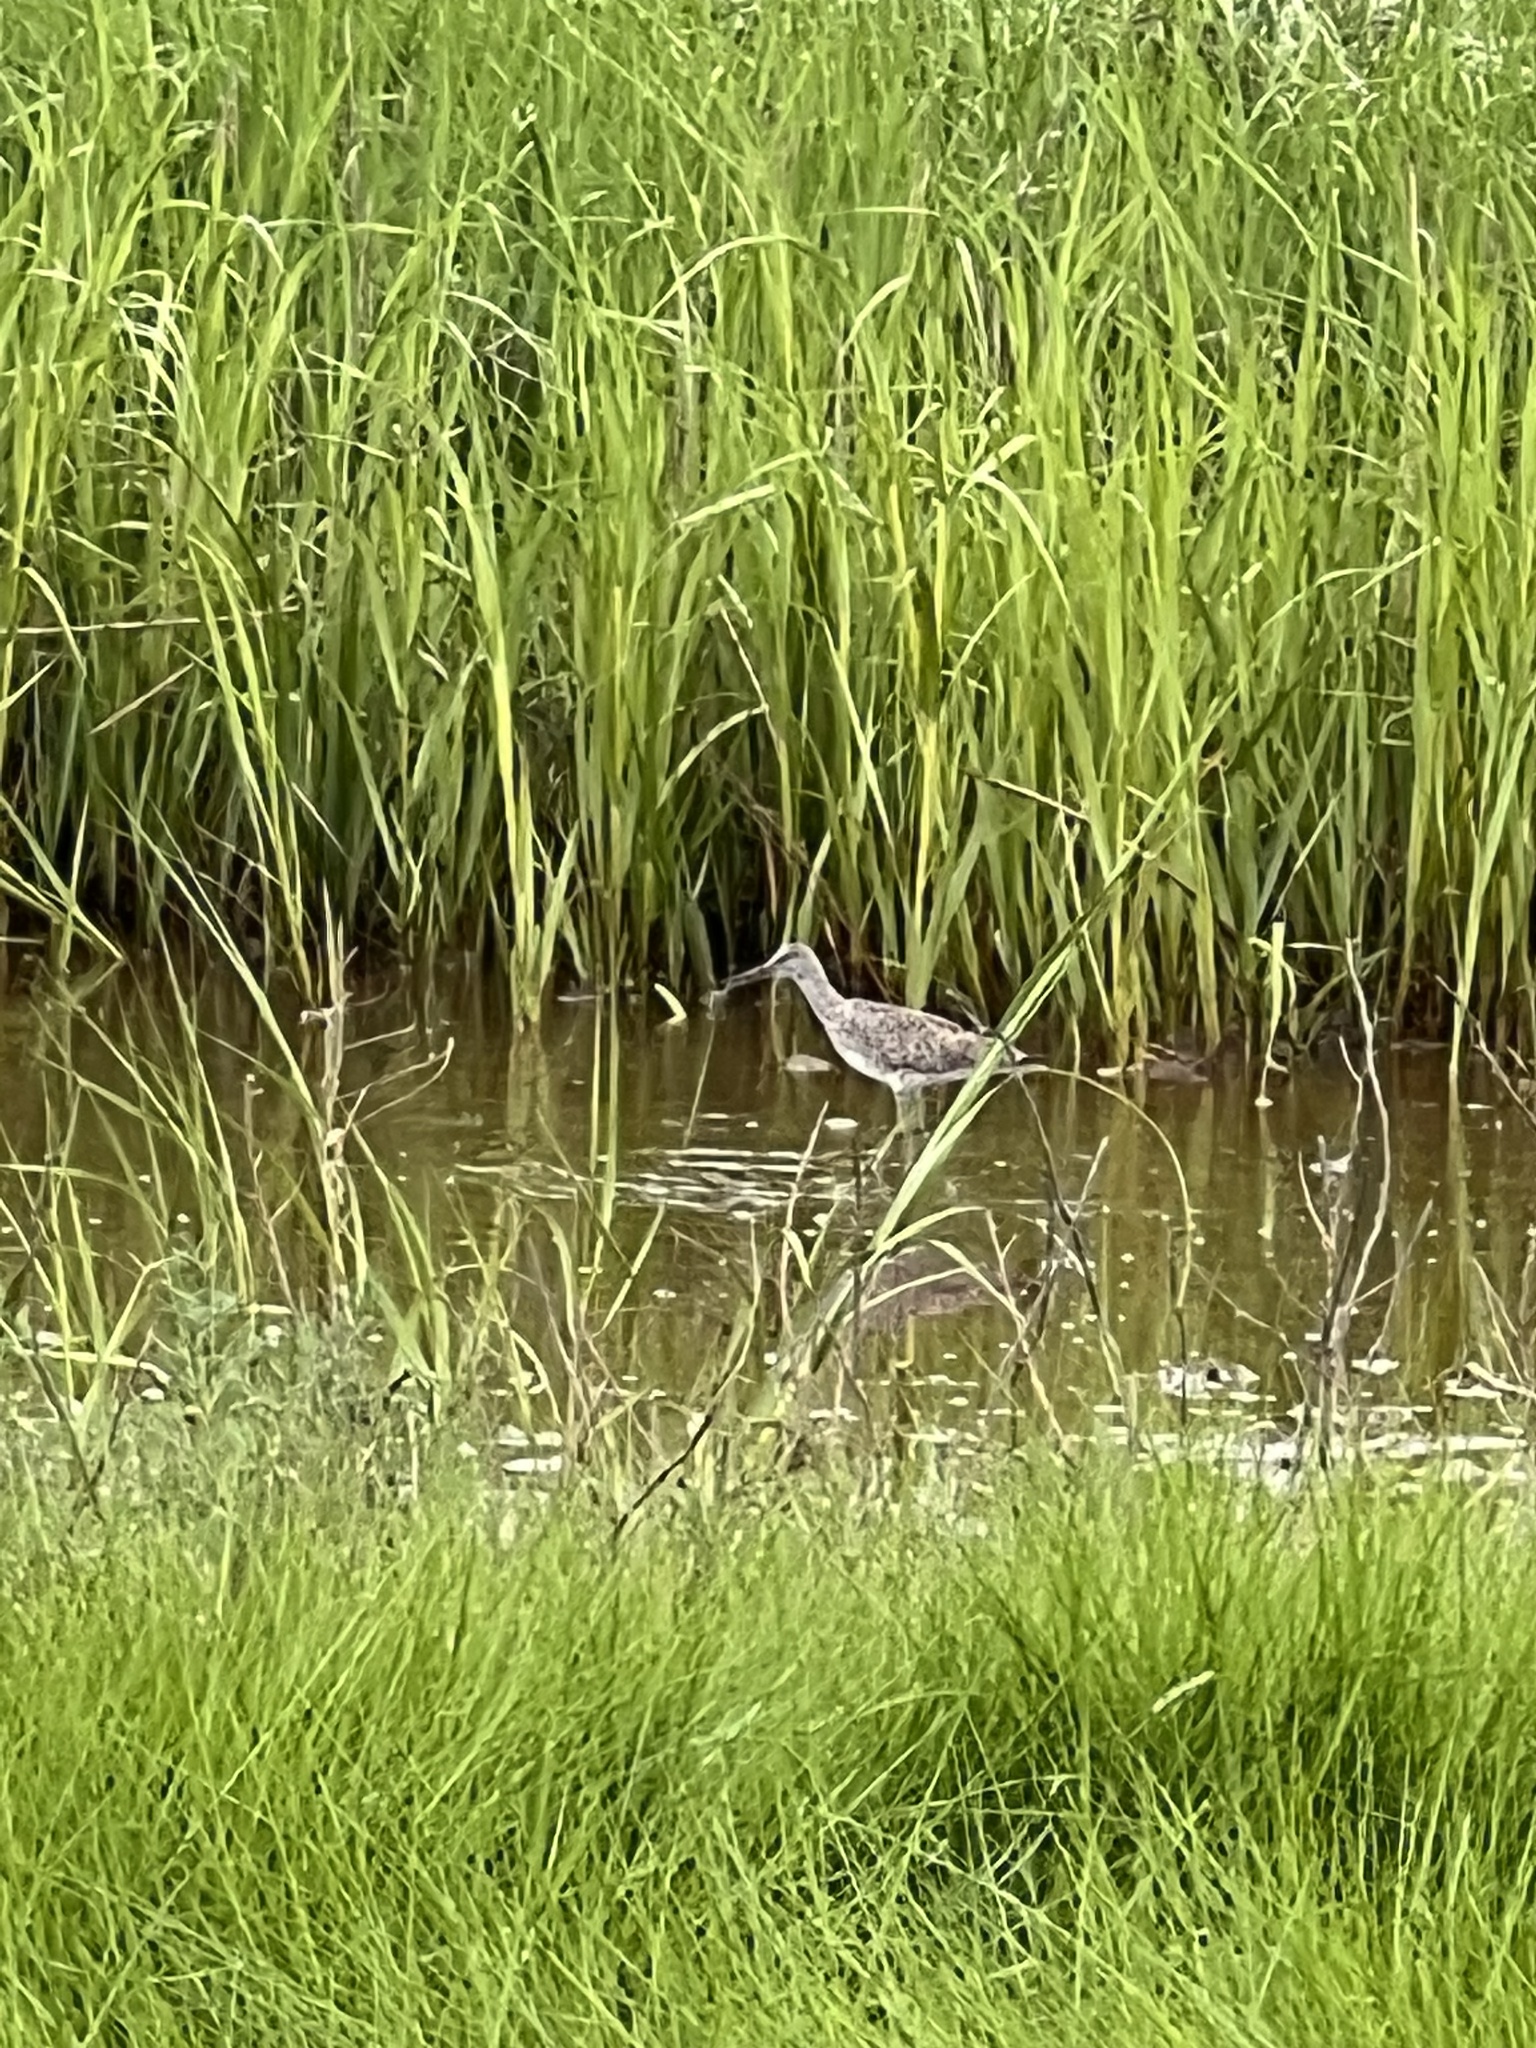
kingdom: Animalia
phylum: Chordata
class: Aves
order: Charadriiformes
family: Scolopacidae
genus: Tringa
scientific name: Tringa semipalmata
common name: Willet
